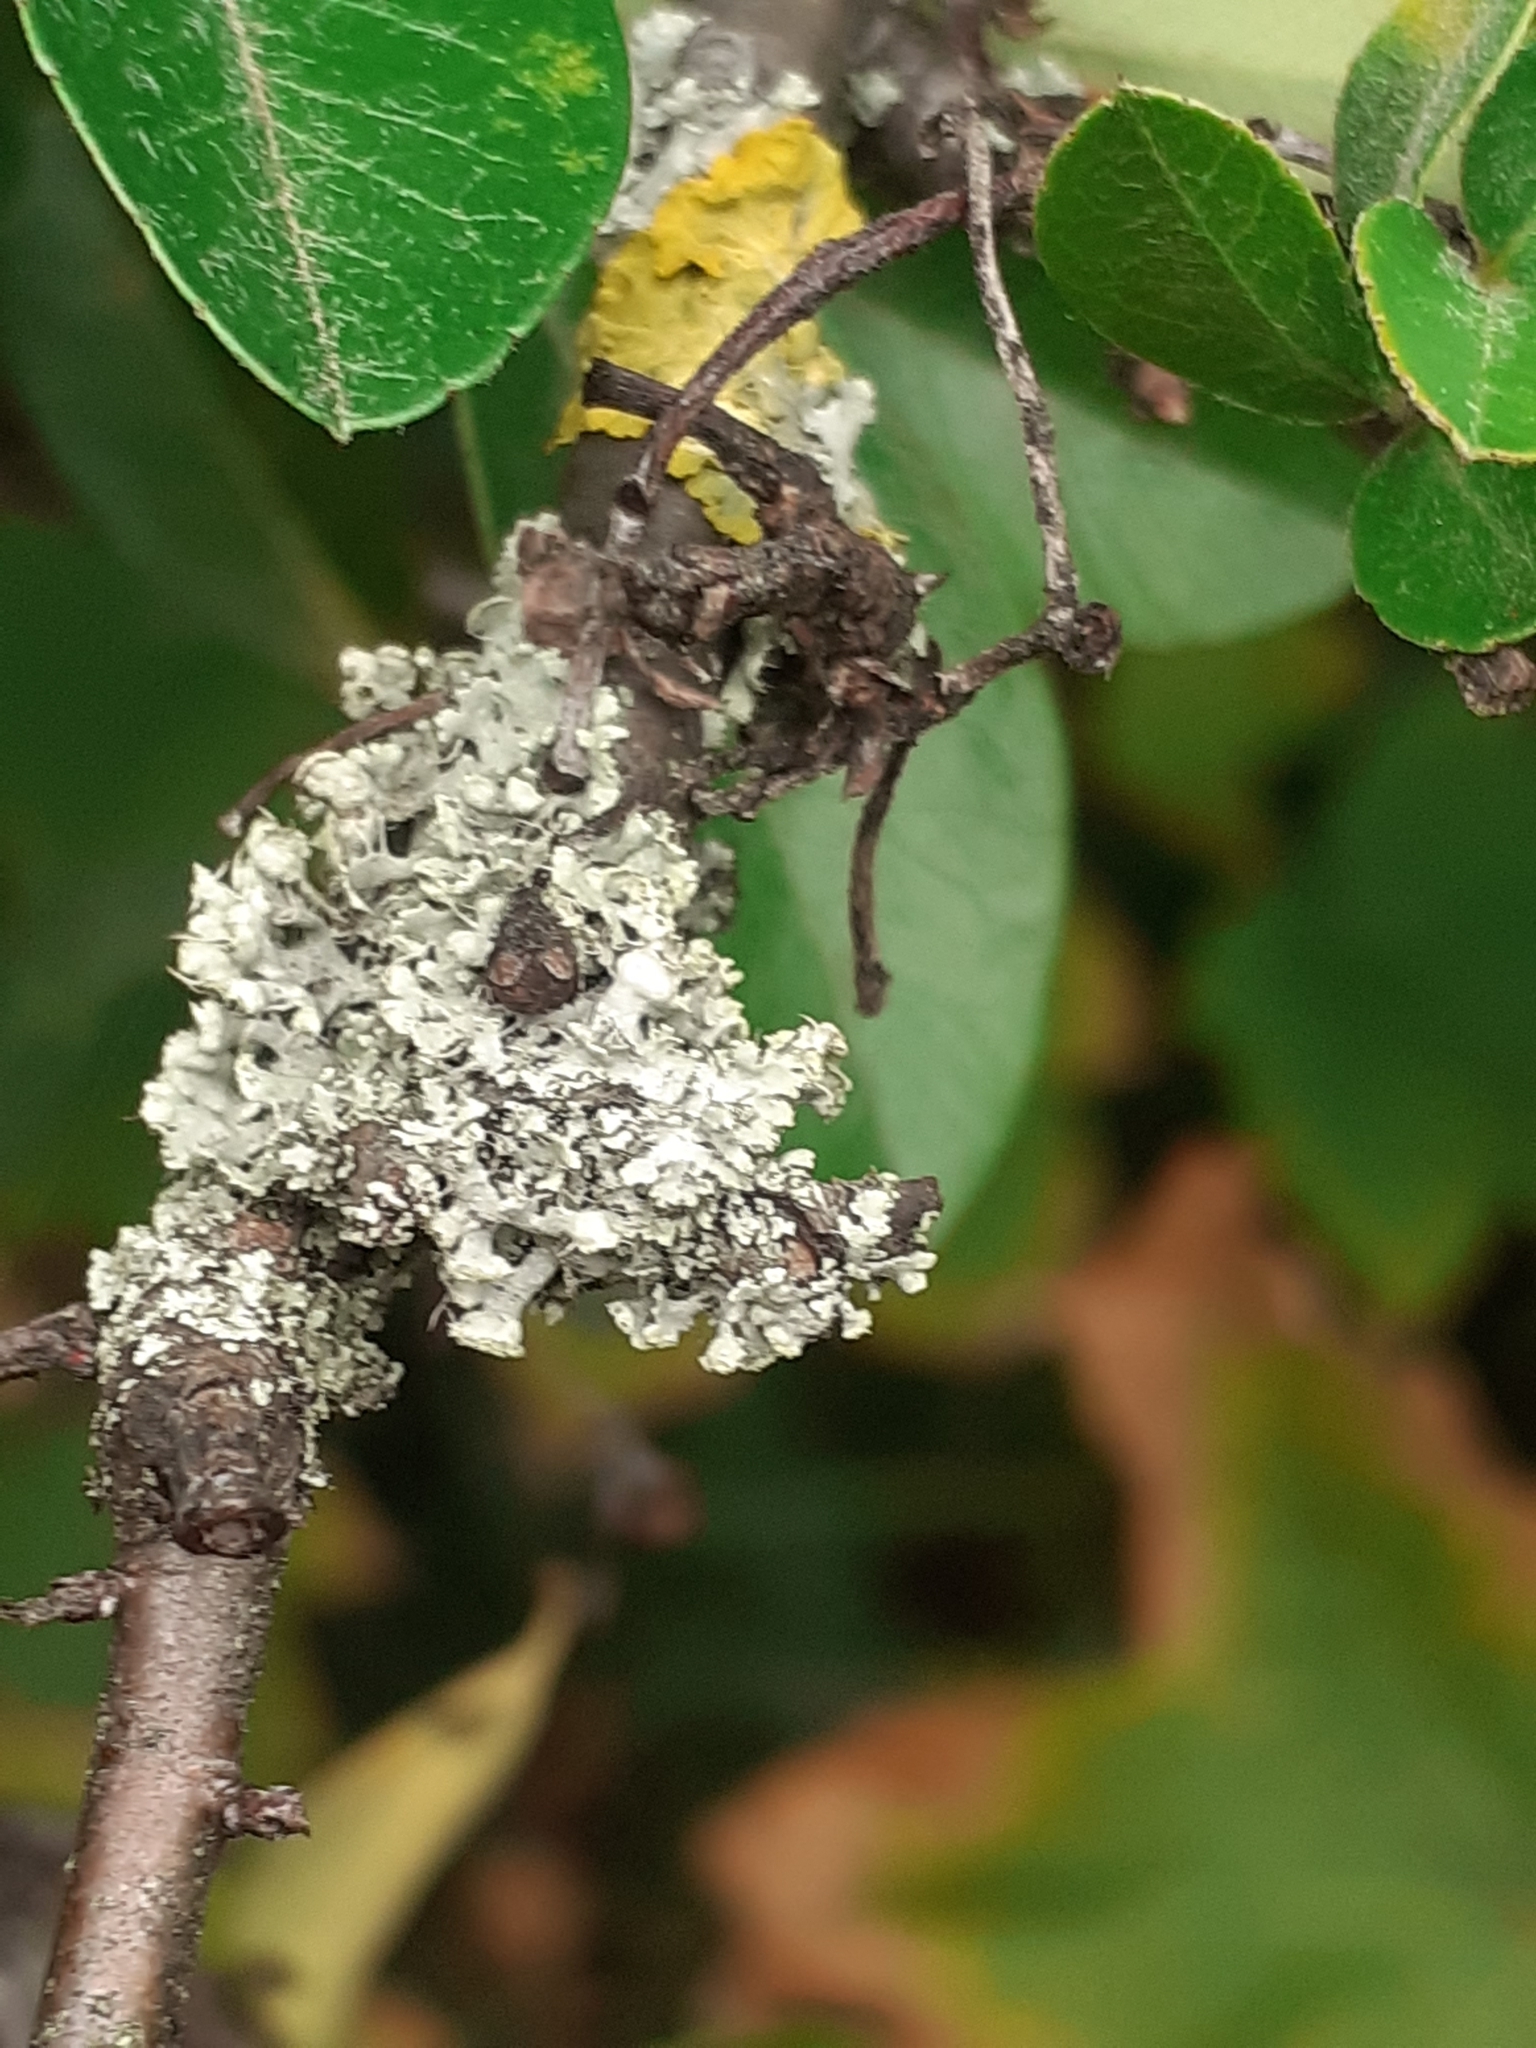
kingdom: Fungi
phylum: Ascomycota
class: Lecanoromycetes
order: Caliciales
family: Physciaceae
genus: Physcia
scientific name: Physcia adscendens
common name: Hooded rosette lichen
